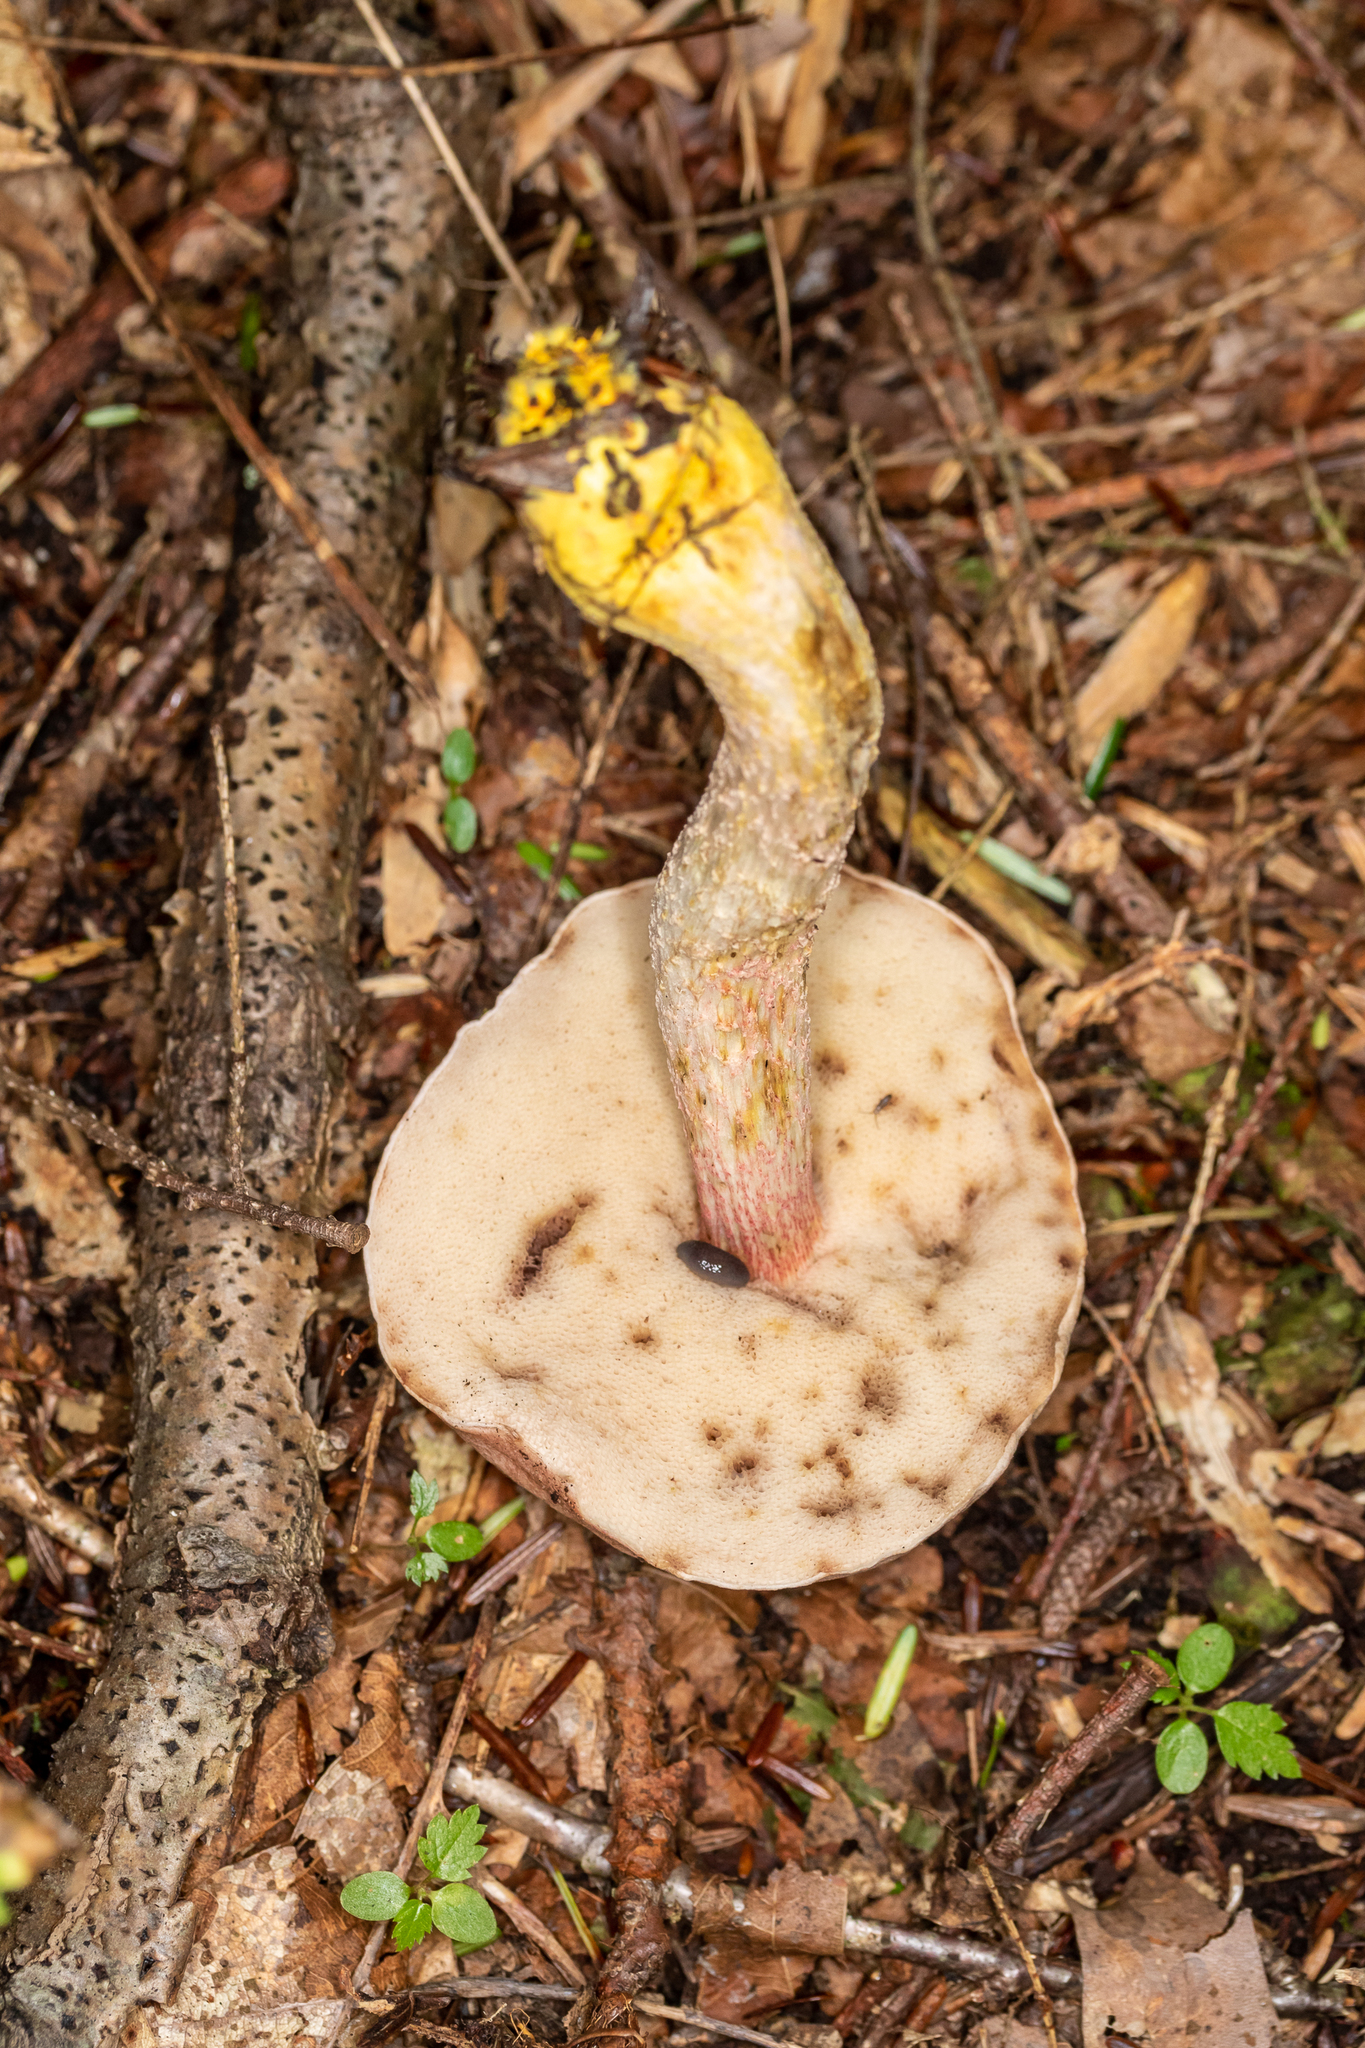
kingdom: Fungi
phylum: Basidiomycota
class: Agaricomycetes
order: Boletales
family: Boletaceae
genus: Harrya
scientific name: Harrya chromipes
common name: Chrome-footed bolete
